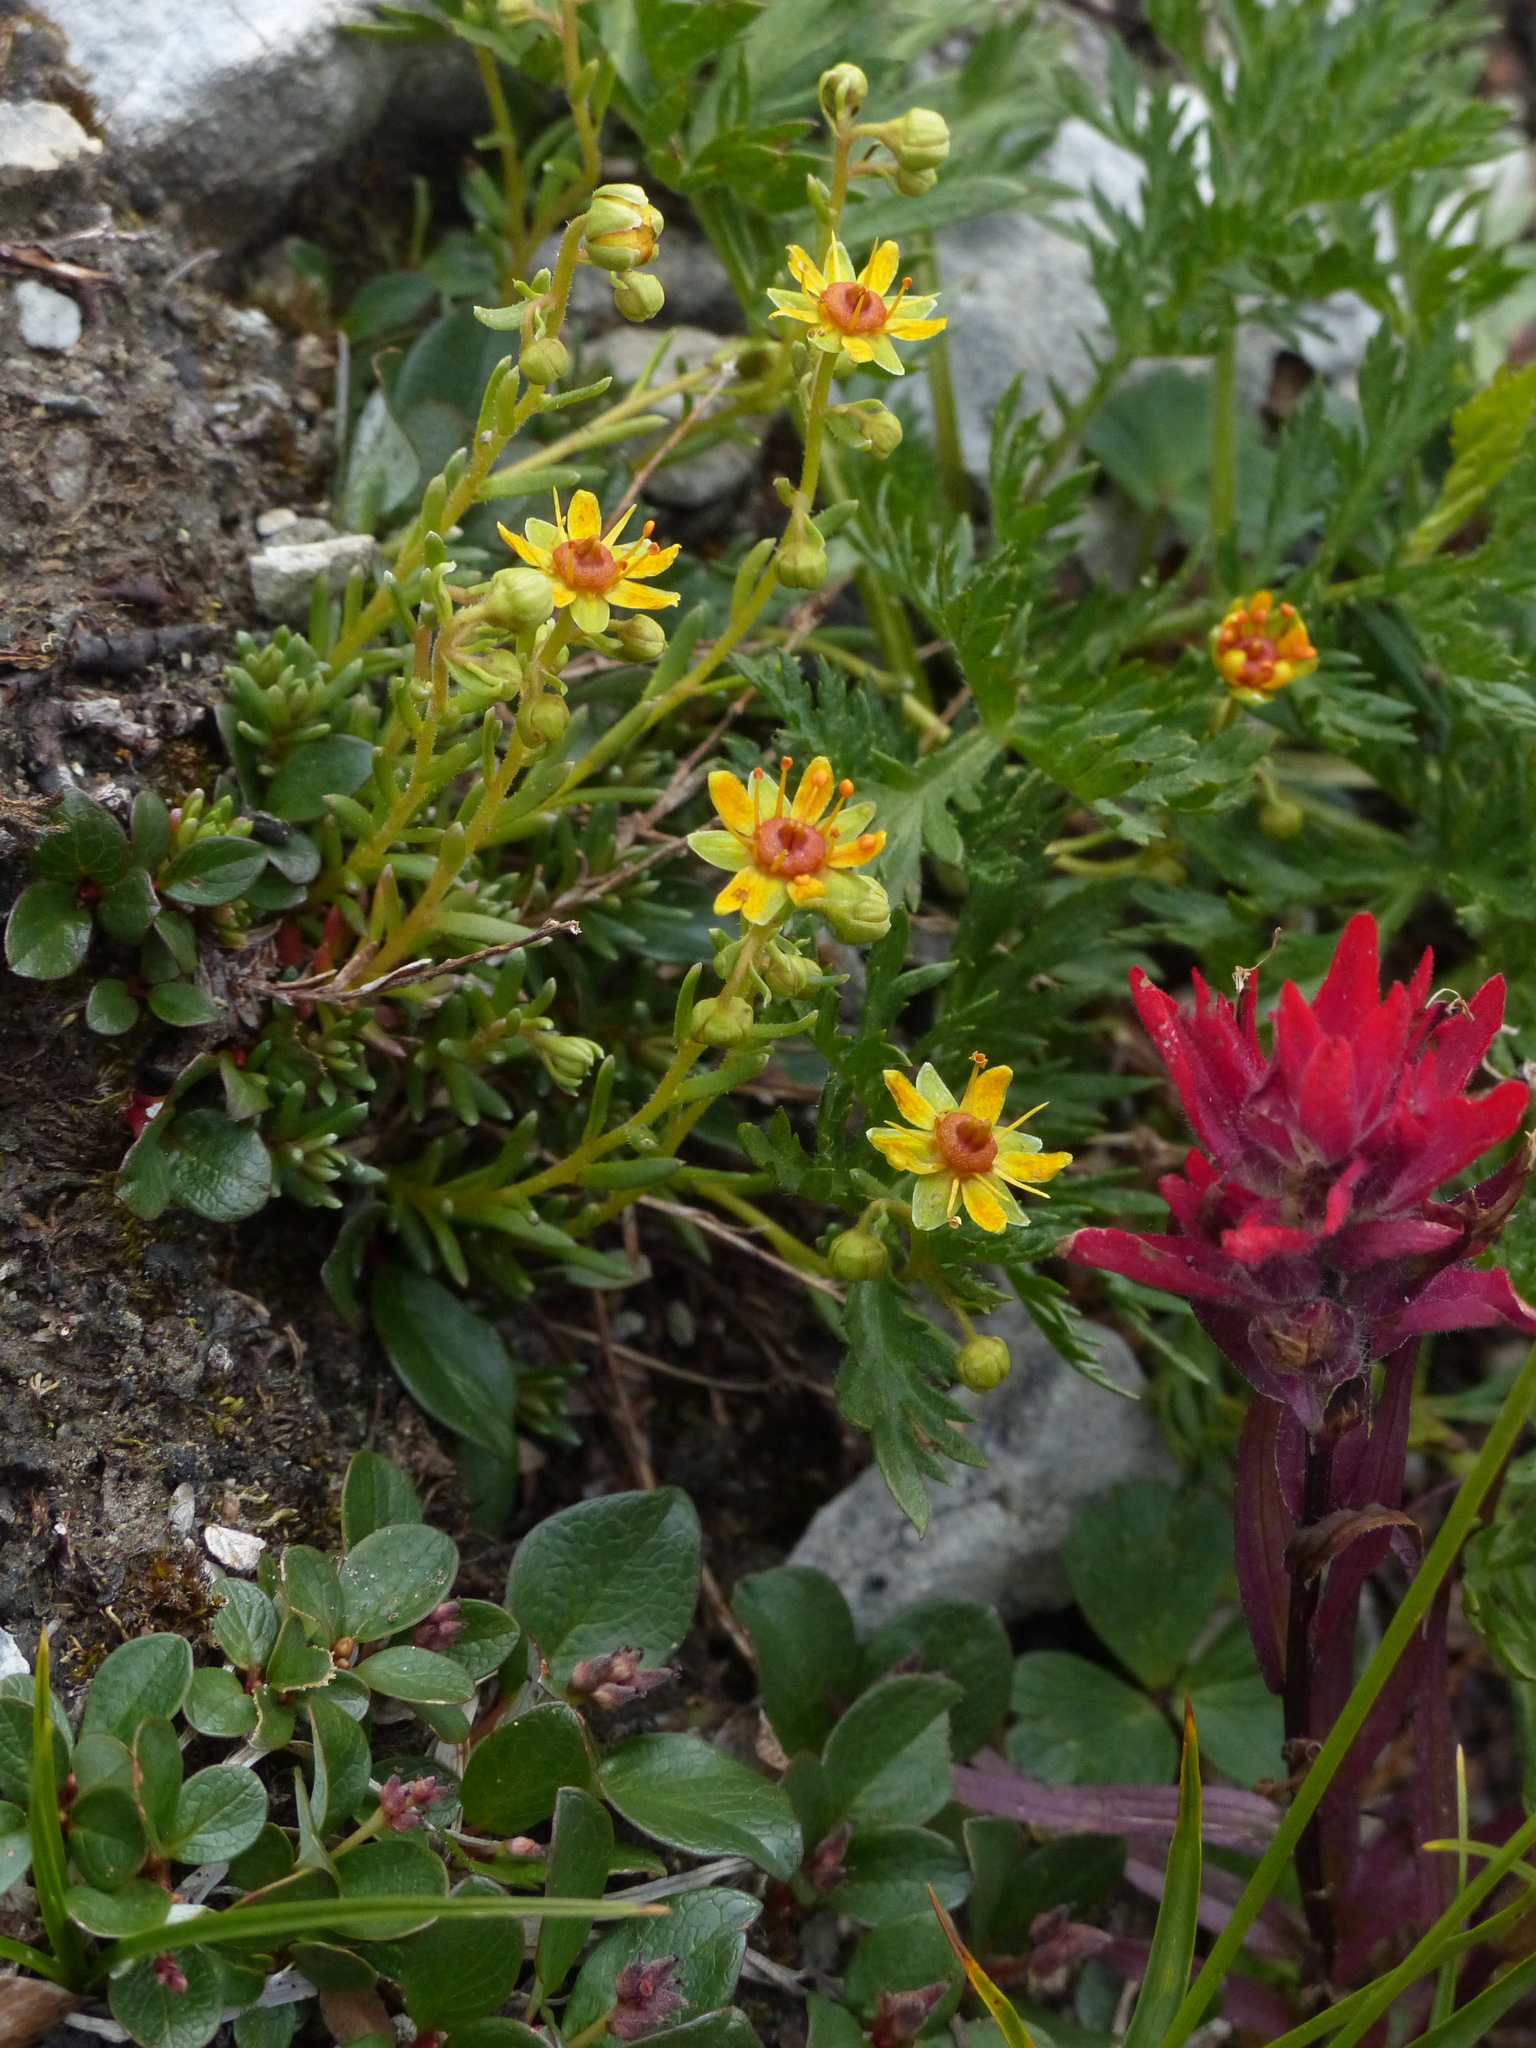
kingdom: Plantae
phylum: Tracheophyta
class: Magnoliopsida
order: Saxifragales
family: Saxifragaceae
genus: Saxifraga
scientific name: Saxifraga aizoides
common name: Yellow mountain saxifrage
